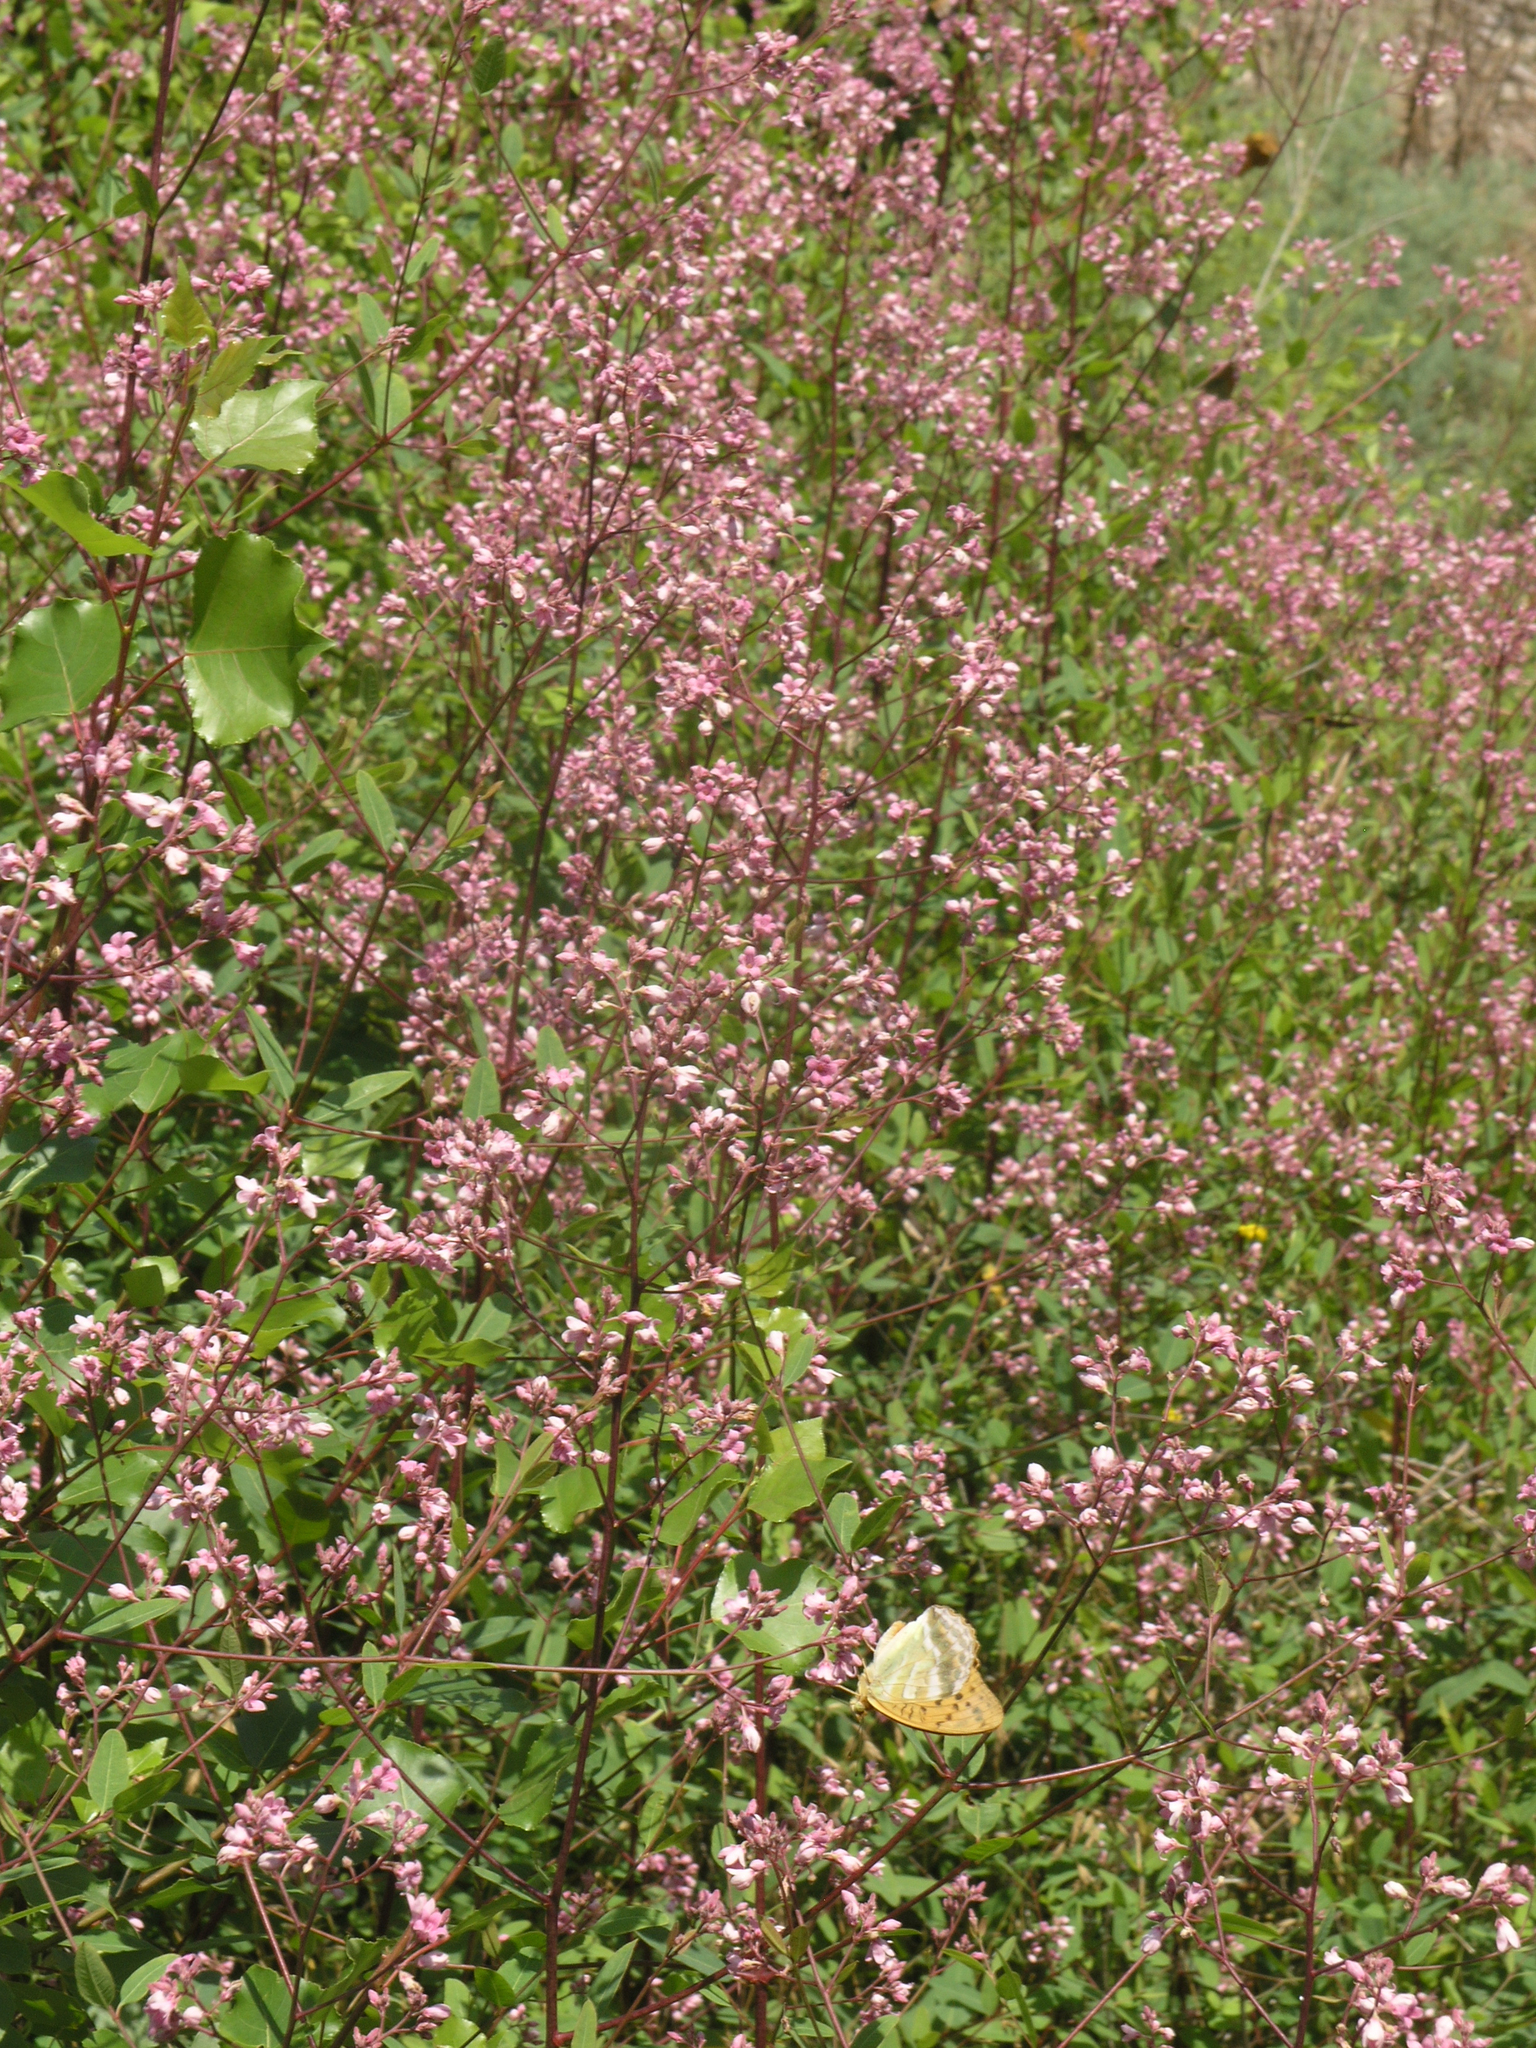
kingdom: Animalia
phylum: Arthropoda
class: Insecta
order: Lepidoptera
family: Nymphalidae
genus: Argynnis
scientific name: Argynnis paphia
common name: Silver-washed fritillary
